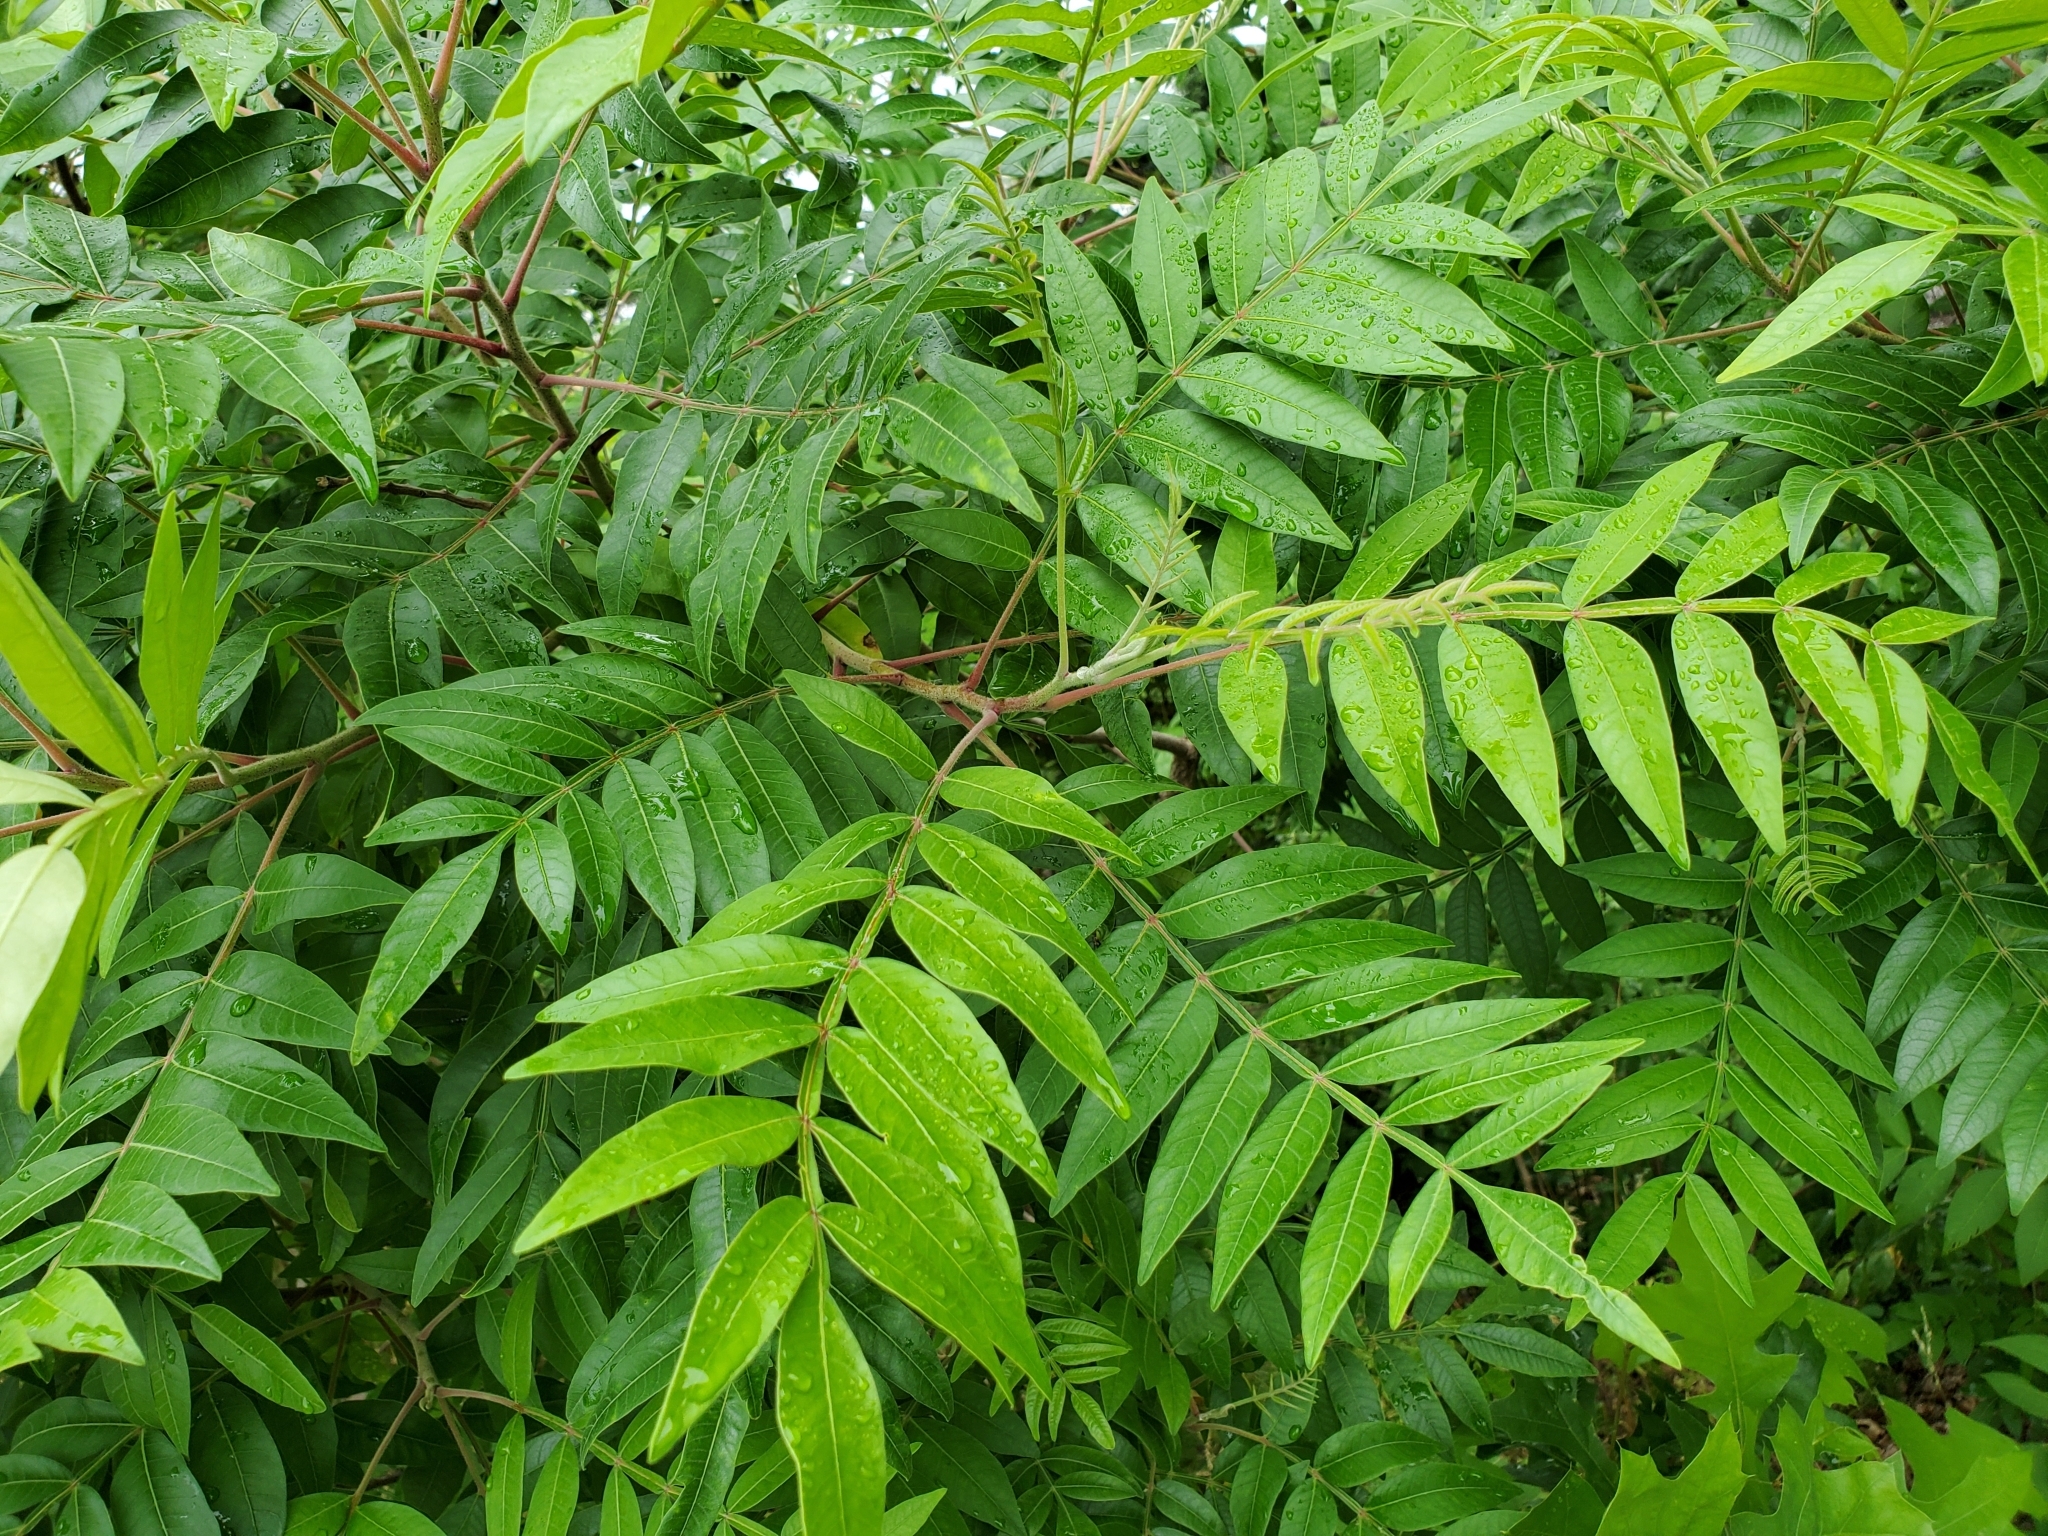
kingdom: Plantae
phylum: Tracheophyta
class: Magnoliopsida
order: Sapindales
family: Anacardiaceae
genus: Rhus
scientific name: Rhus copallina
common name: Shining sumac
